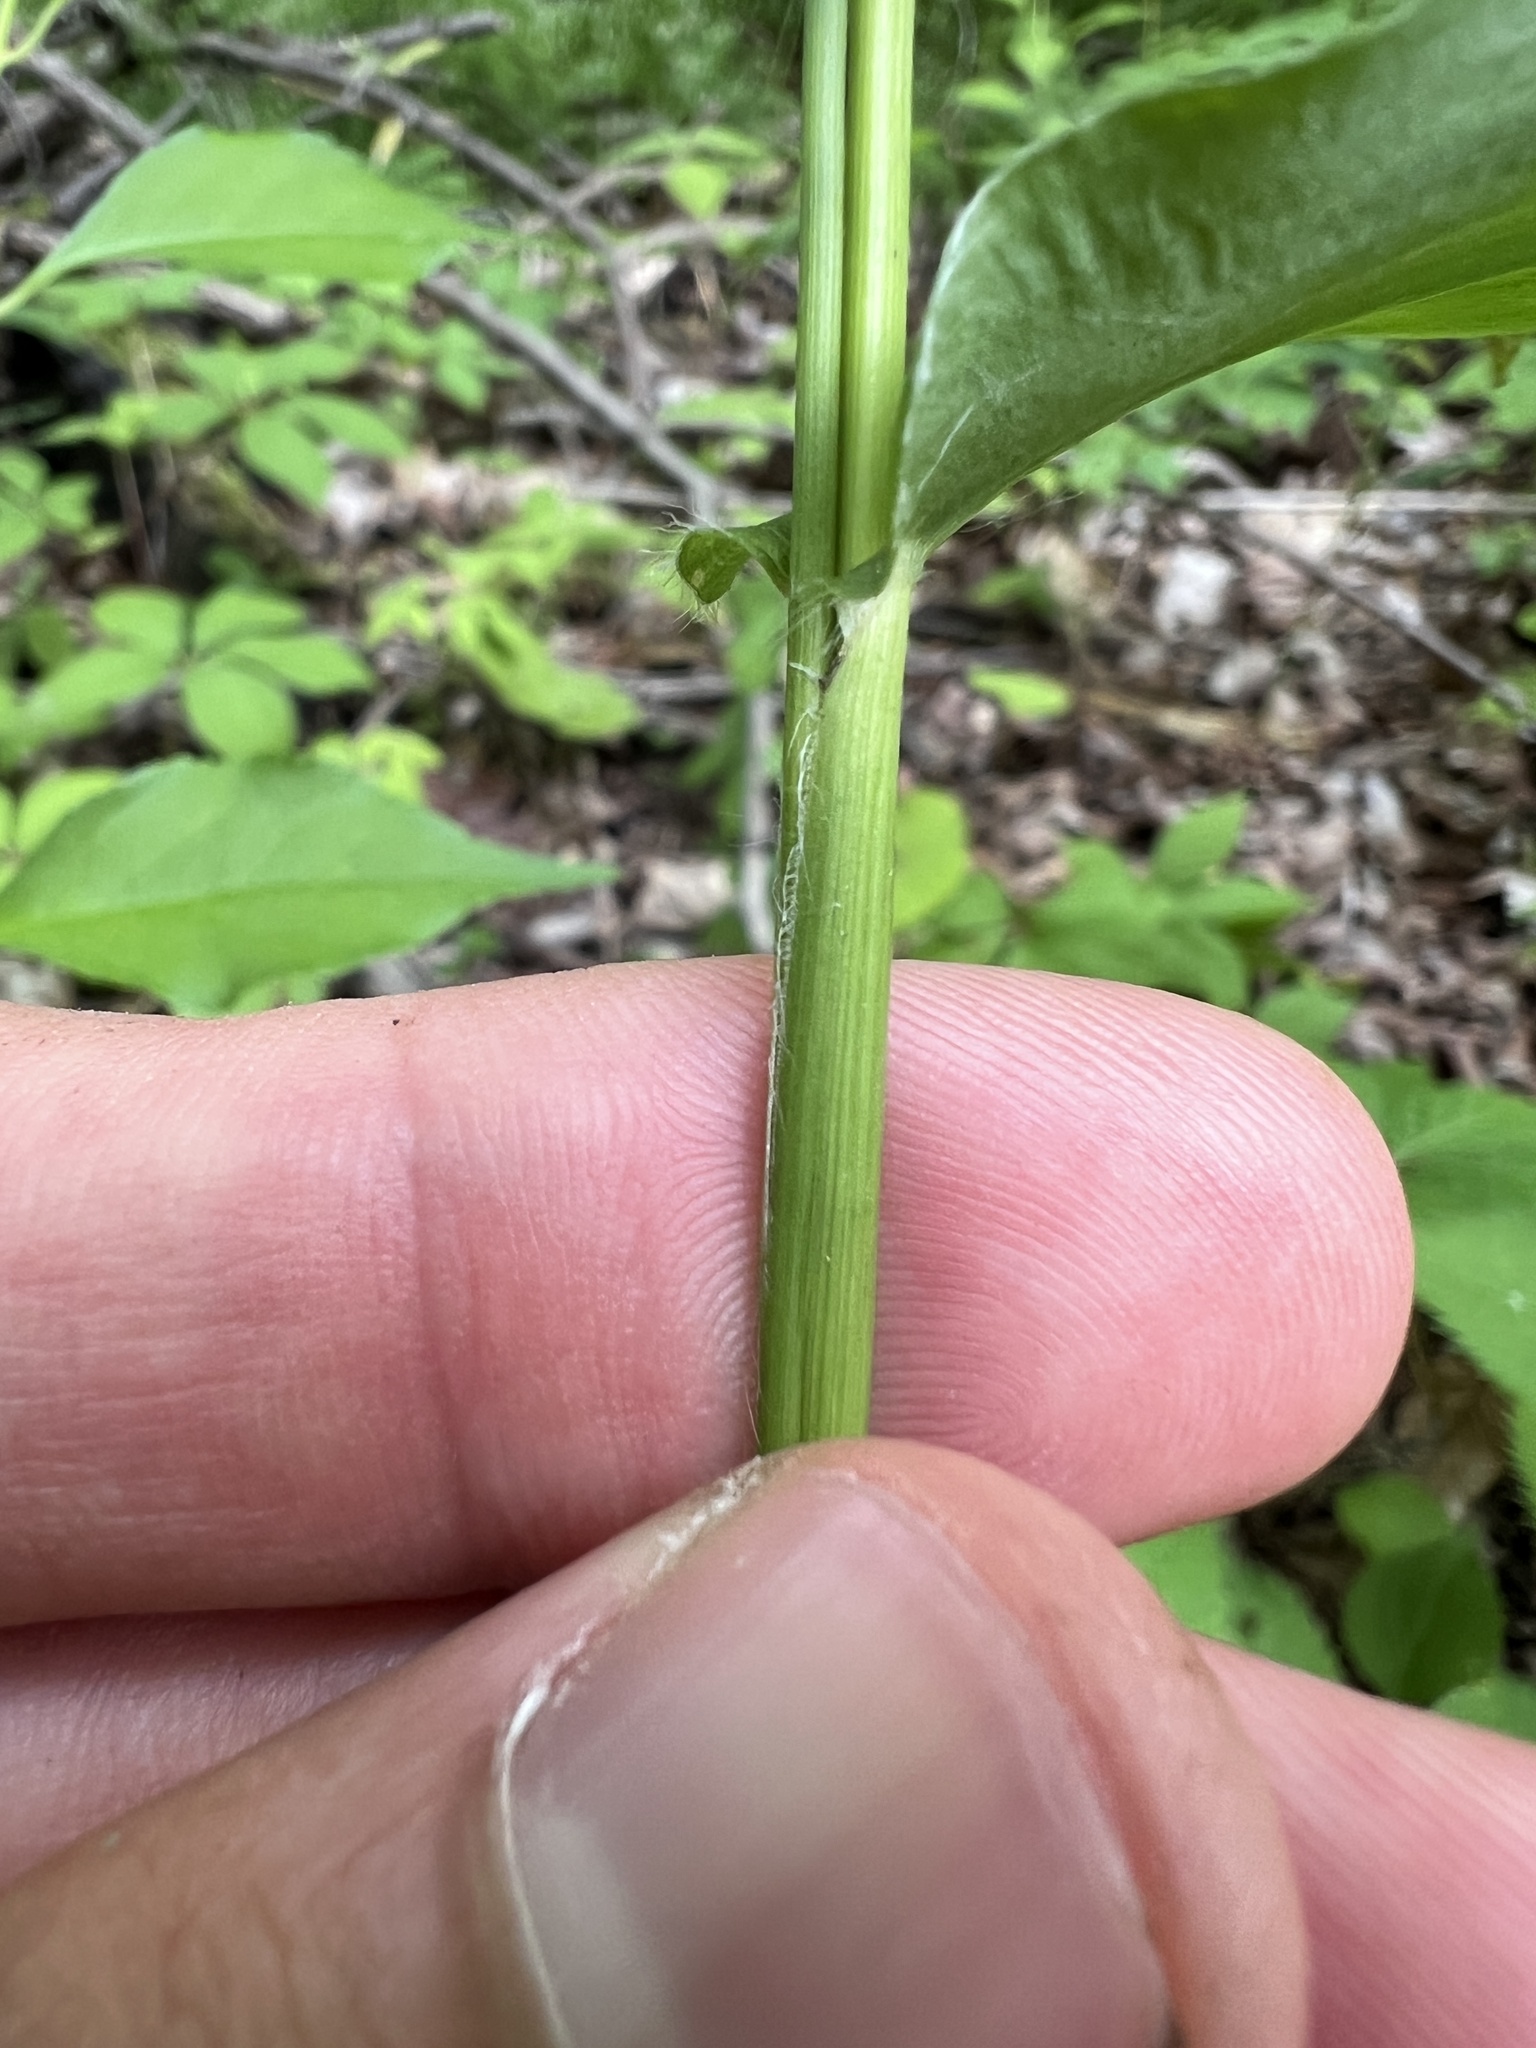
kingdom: Plantae
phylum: Tracheophyta
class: Liliopsida
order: Poales
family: Poaceae
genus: Dichanthelium
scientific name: Dichanthelium latifolium
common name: Broad-leaved panicgrass
